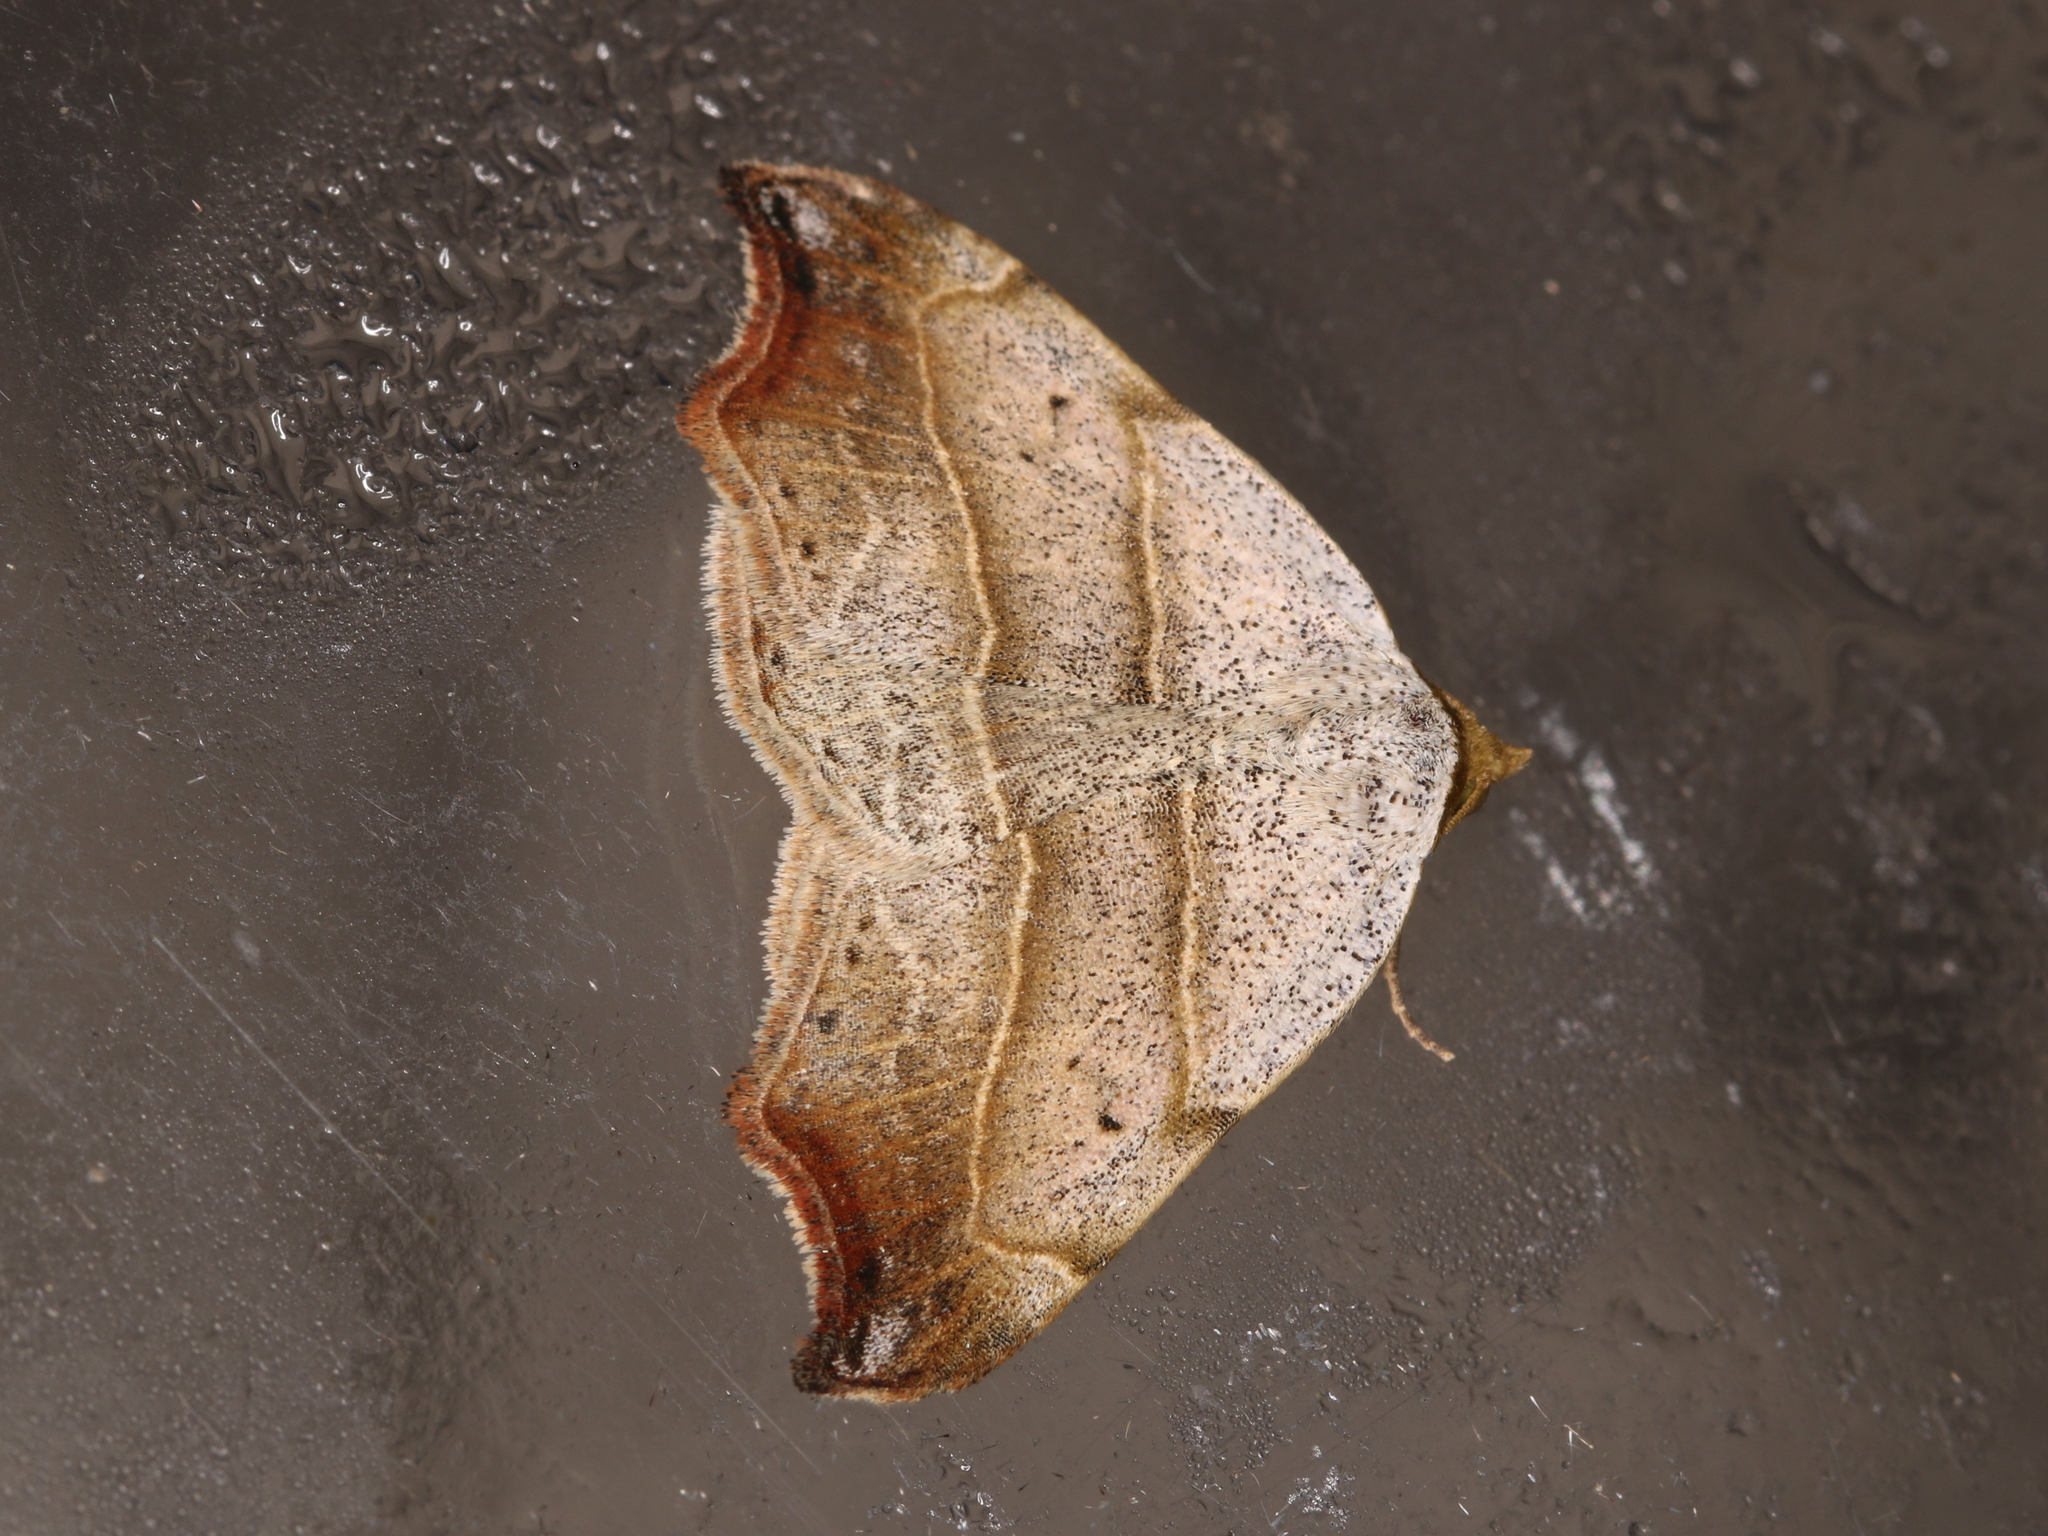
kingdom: Animalia
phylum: Arthropoda
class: Insecta
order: Lepidoptera
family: Erebidae
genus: Laspeyria
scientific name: Laspeyria flexula
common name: Beautiful hook-tip
